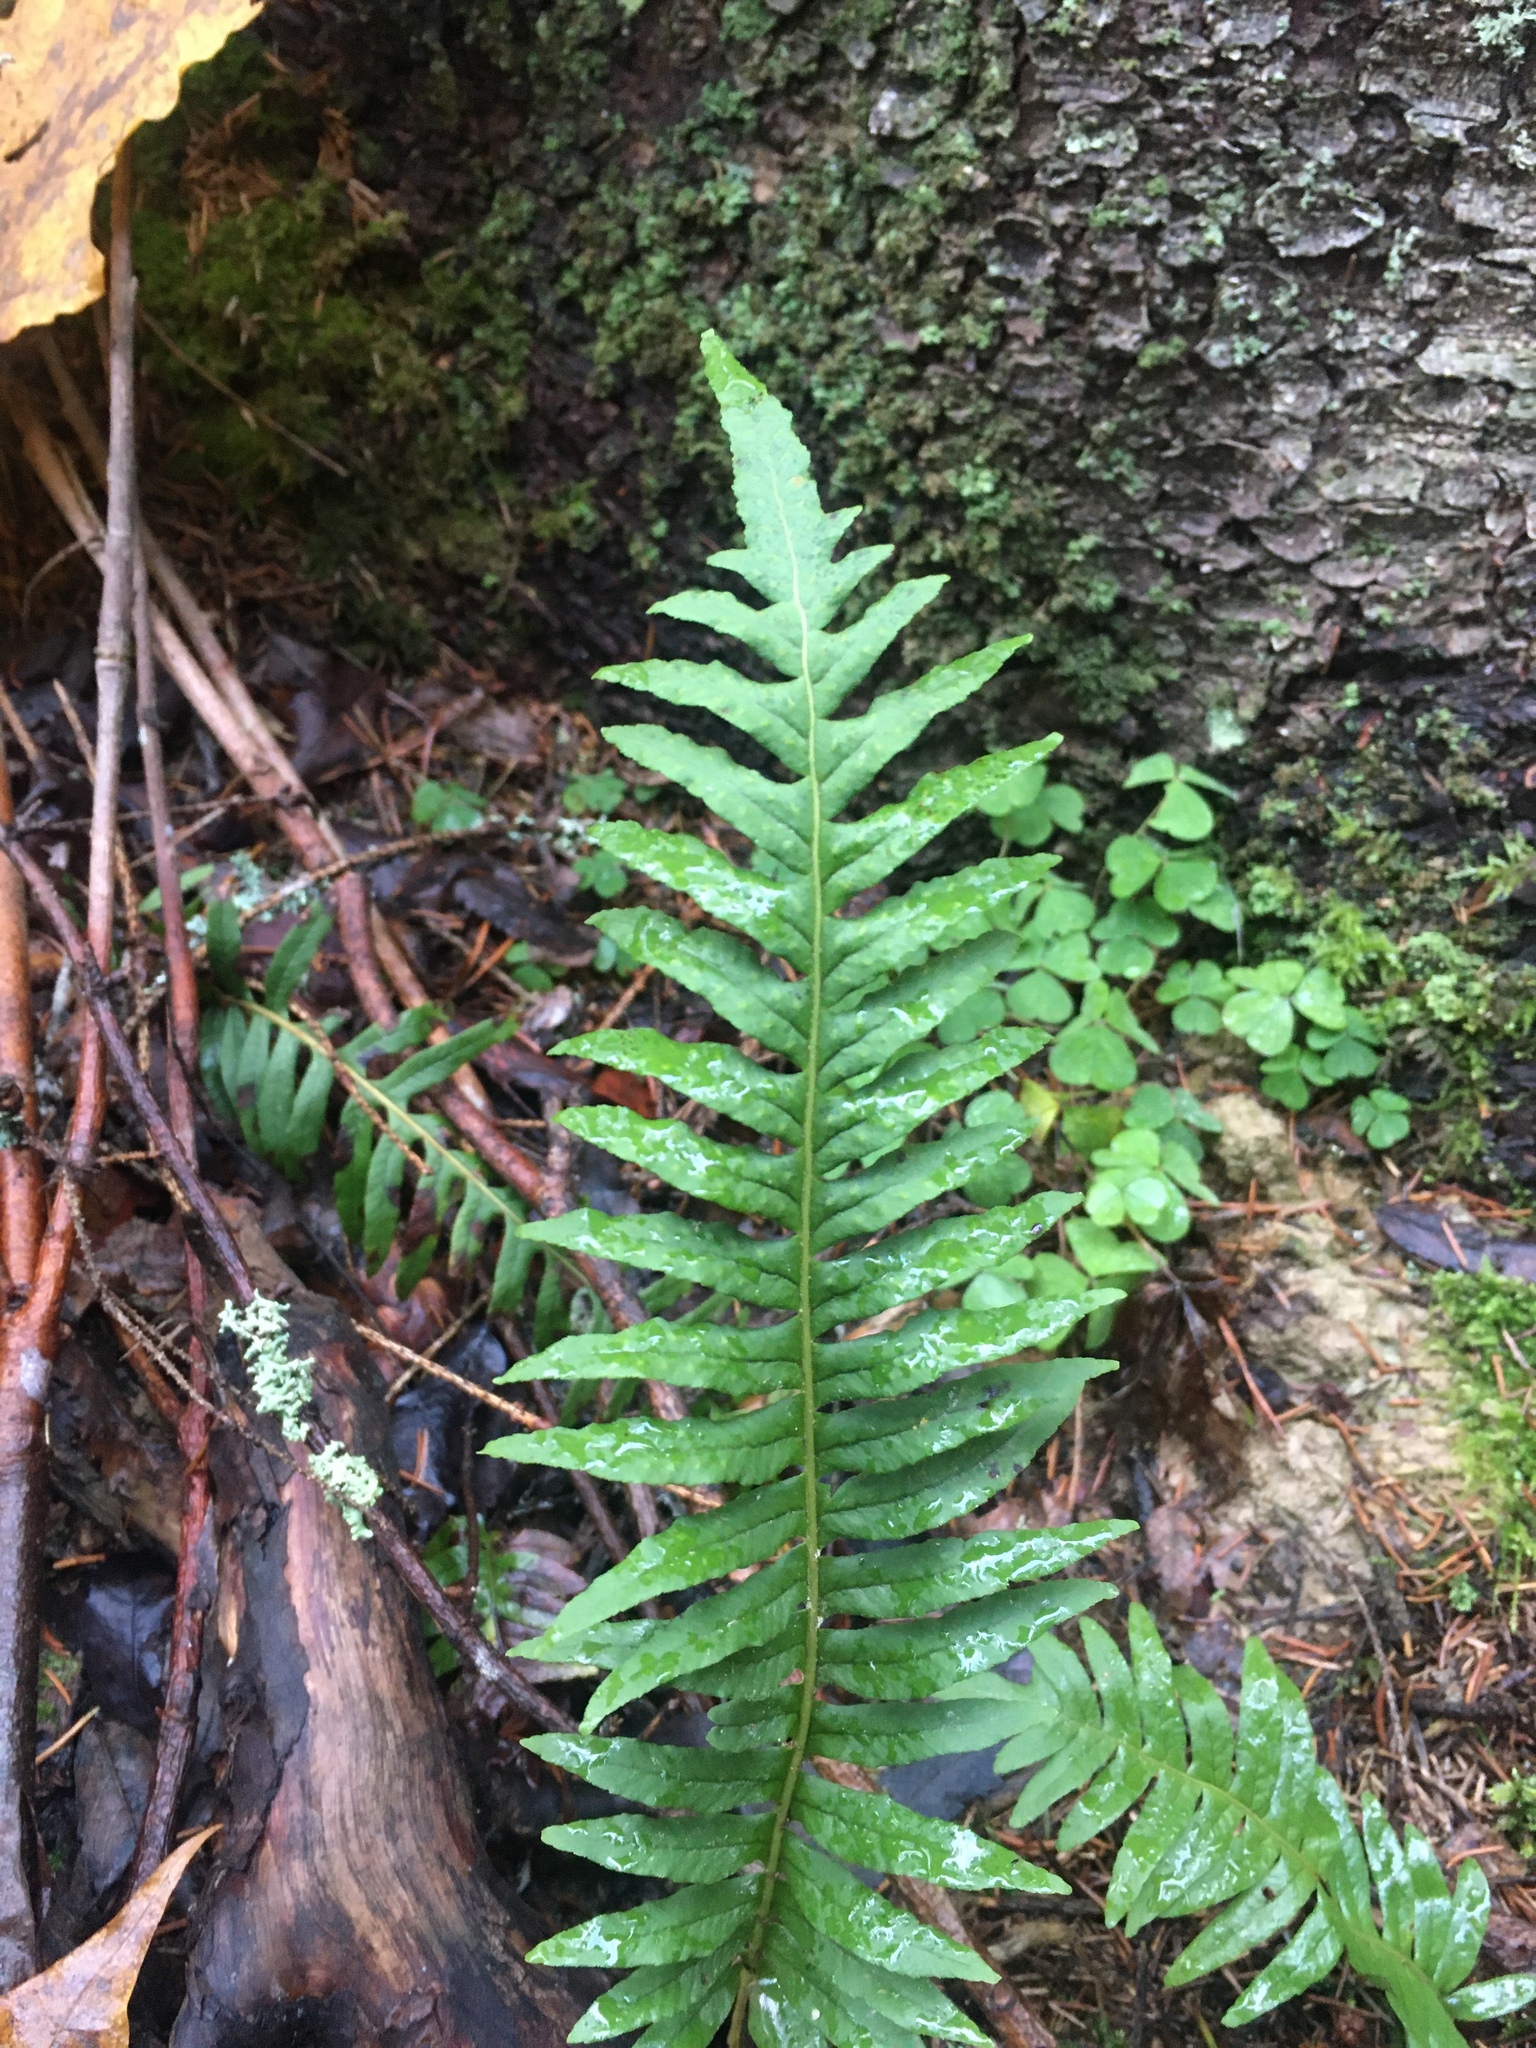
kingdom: Plantae
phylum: Tracheophyta
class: Polypodiopsida
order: Polypodiales
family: Polypodiaceae
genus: Polypodium
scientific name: Polypodium vulgare
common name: Common polypody
